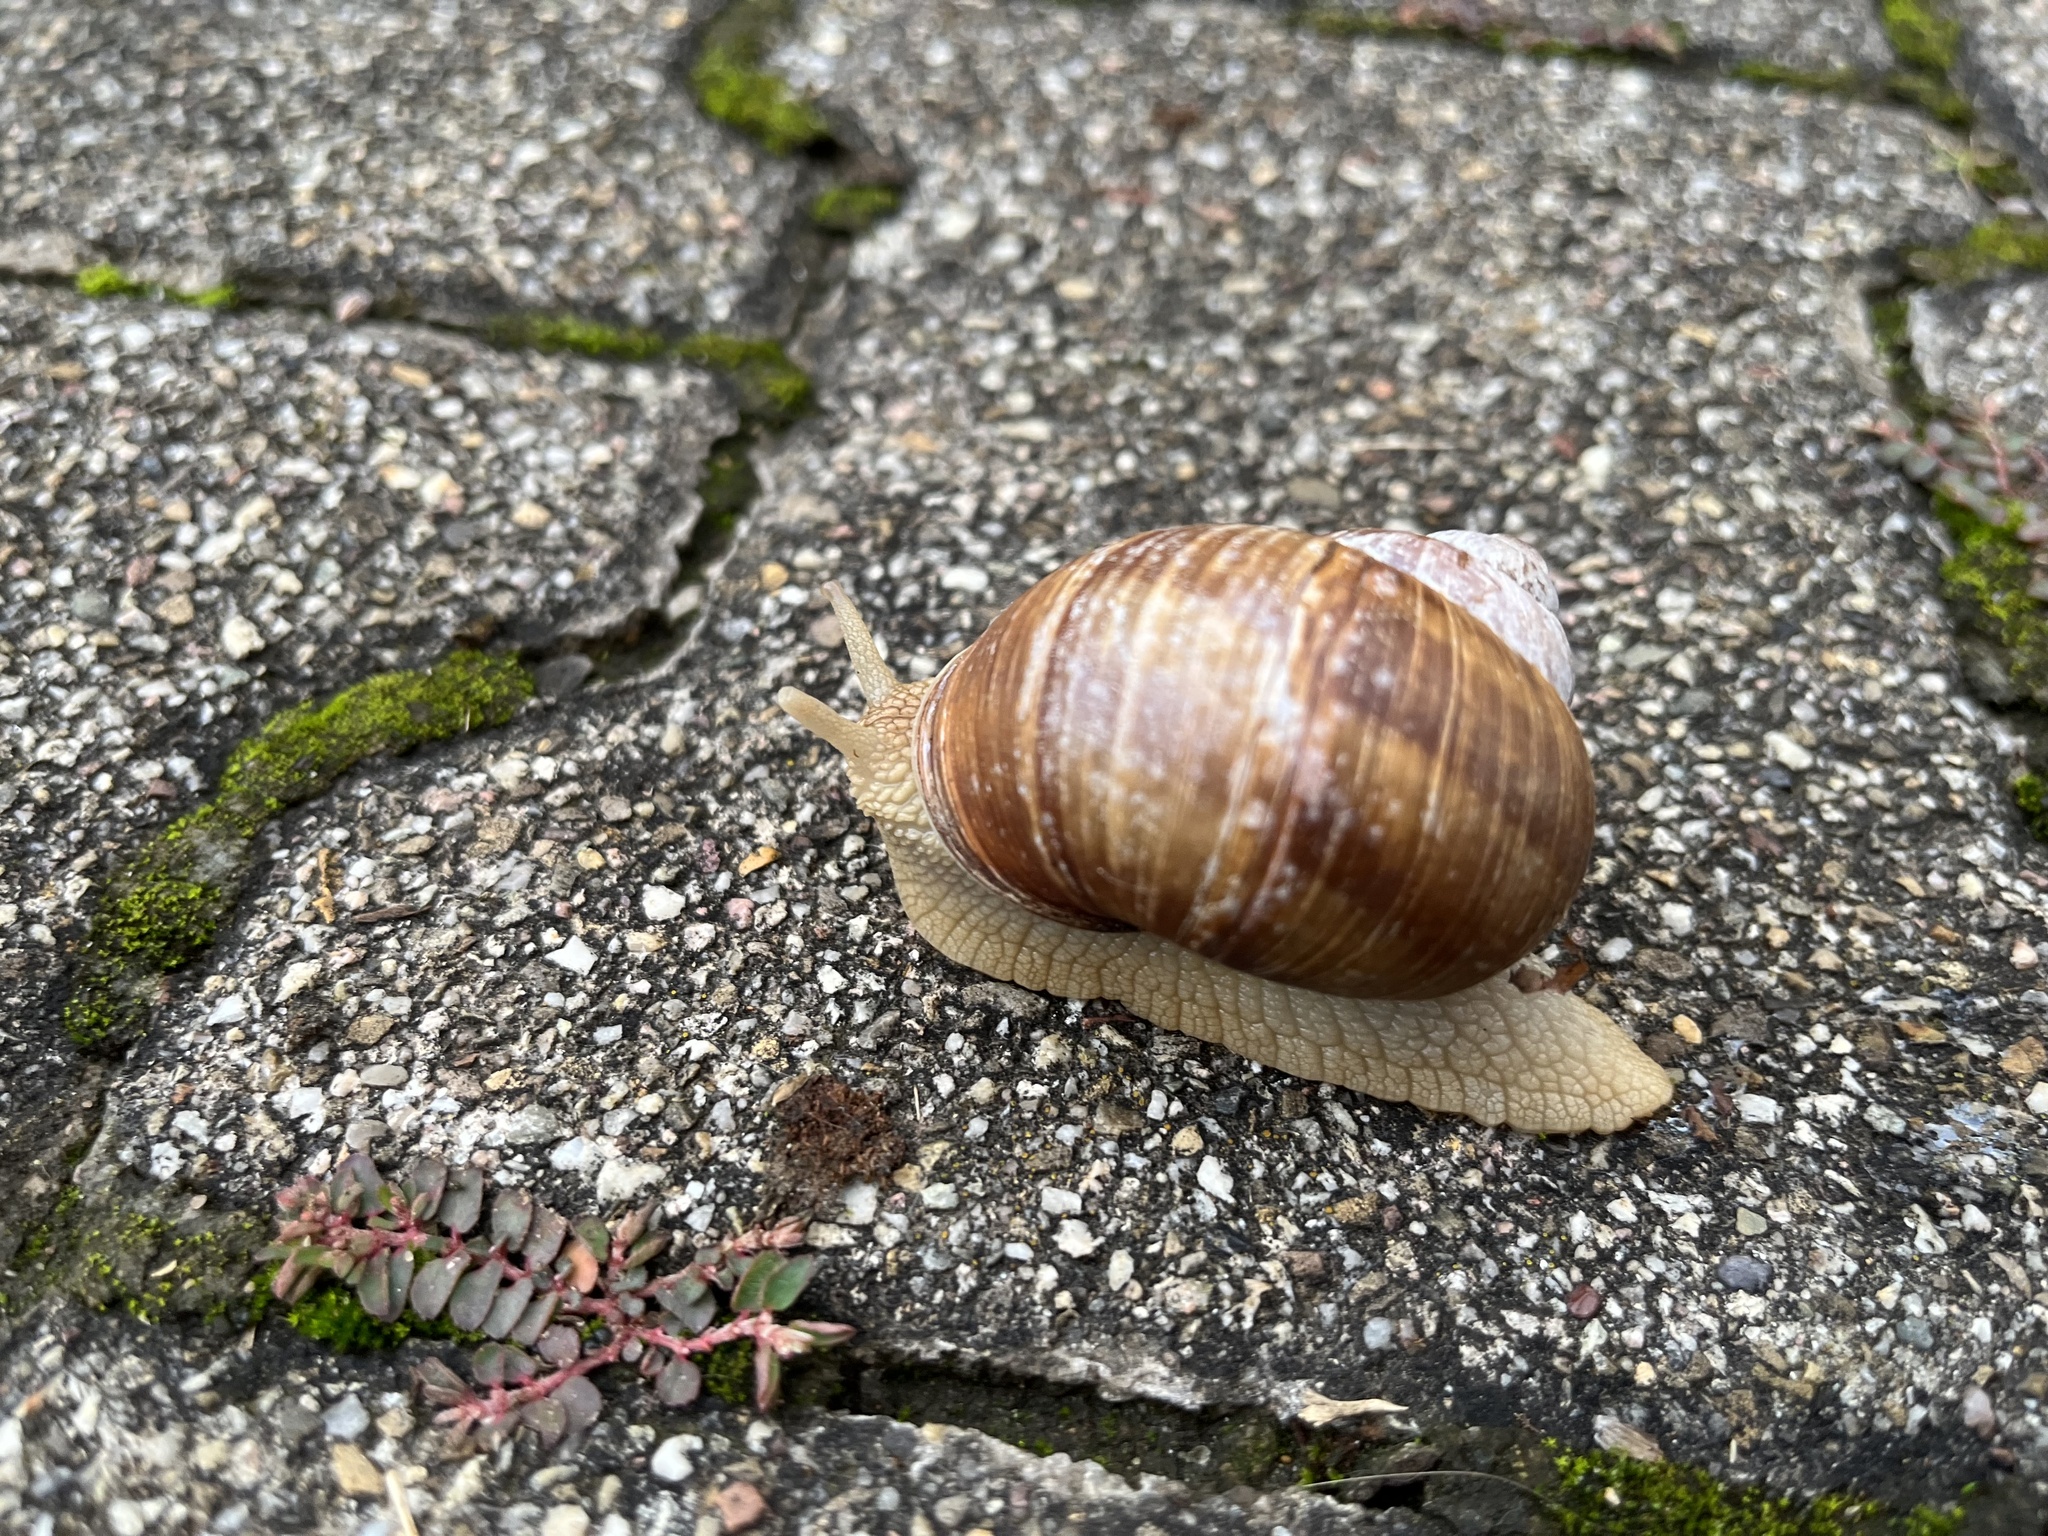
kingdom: Animalia
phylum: Mollusca
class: Gastropoda
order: Stylommatophora
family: Helicidae
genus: Helix
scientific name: Helix pomatia
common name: Roman snail
